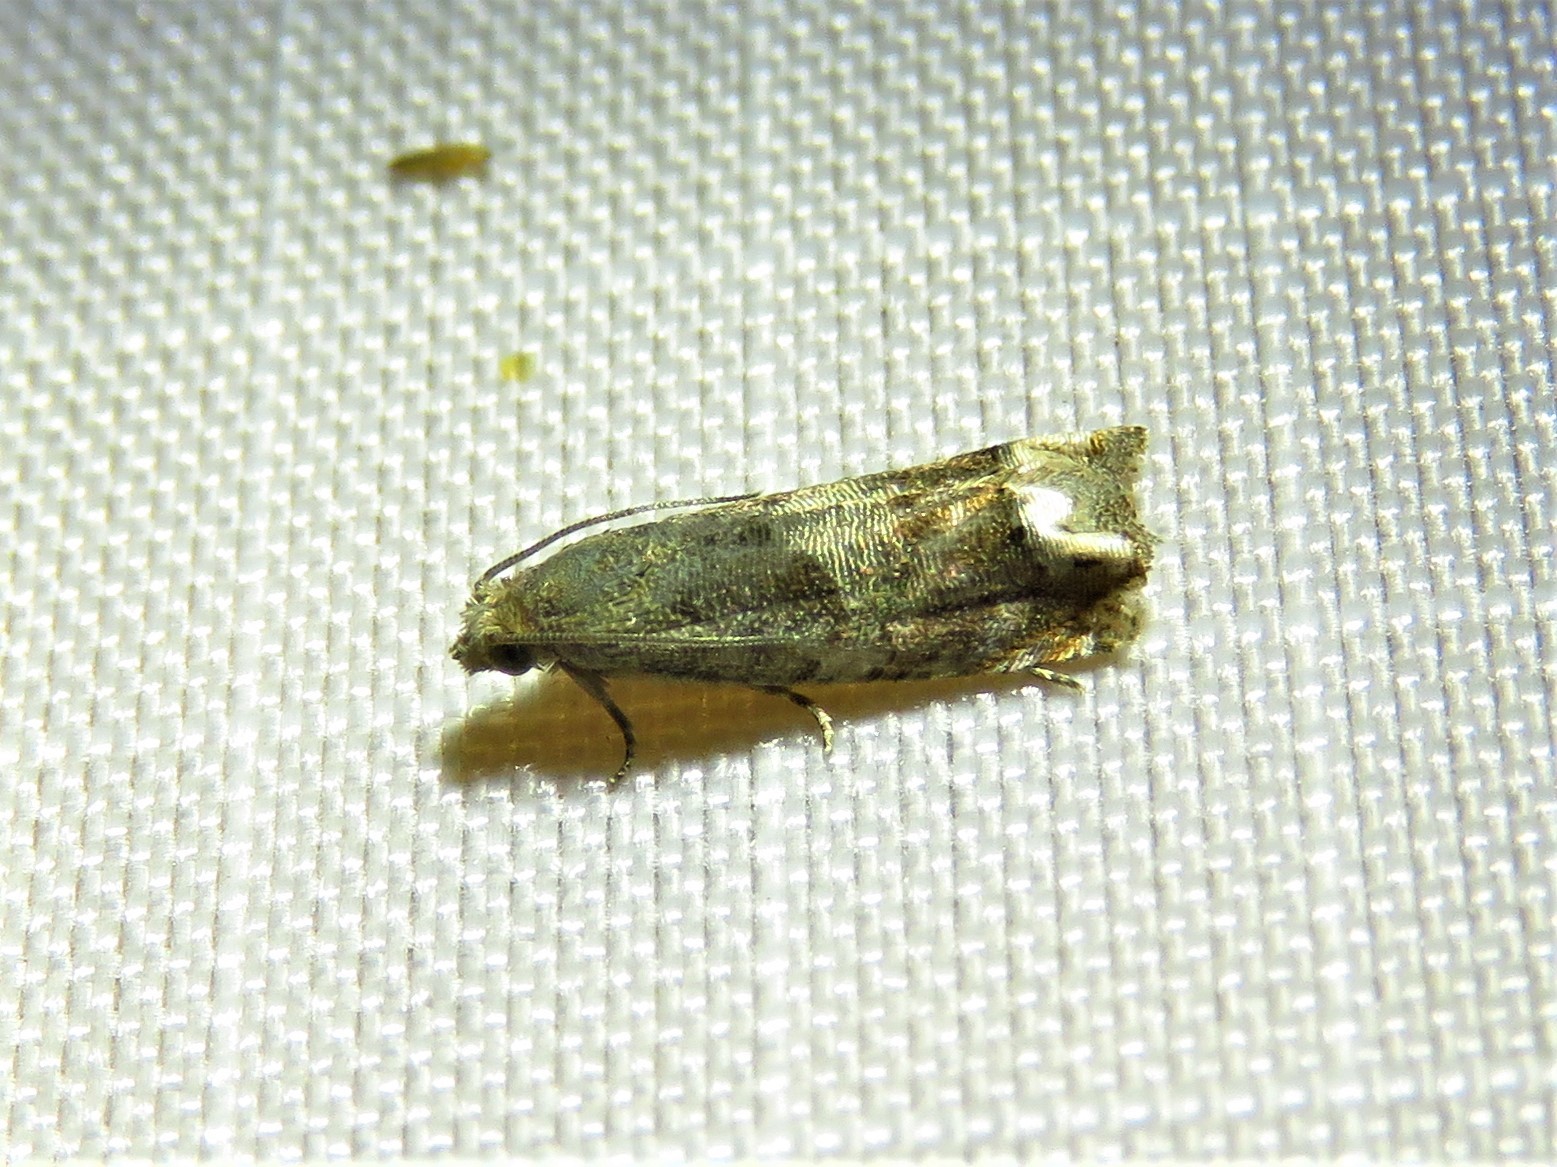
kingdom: Animalia
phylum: Arthropoda
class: Insecta
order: Lepidoptera
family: Tortricidae
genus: Epiblema
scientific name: Epiblema strenuana
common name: Ragweed borer moth
